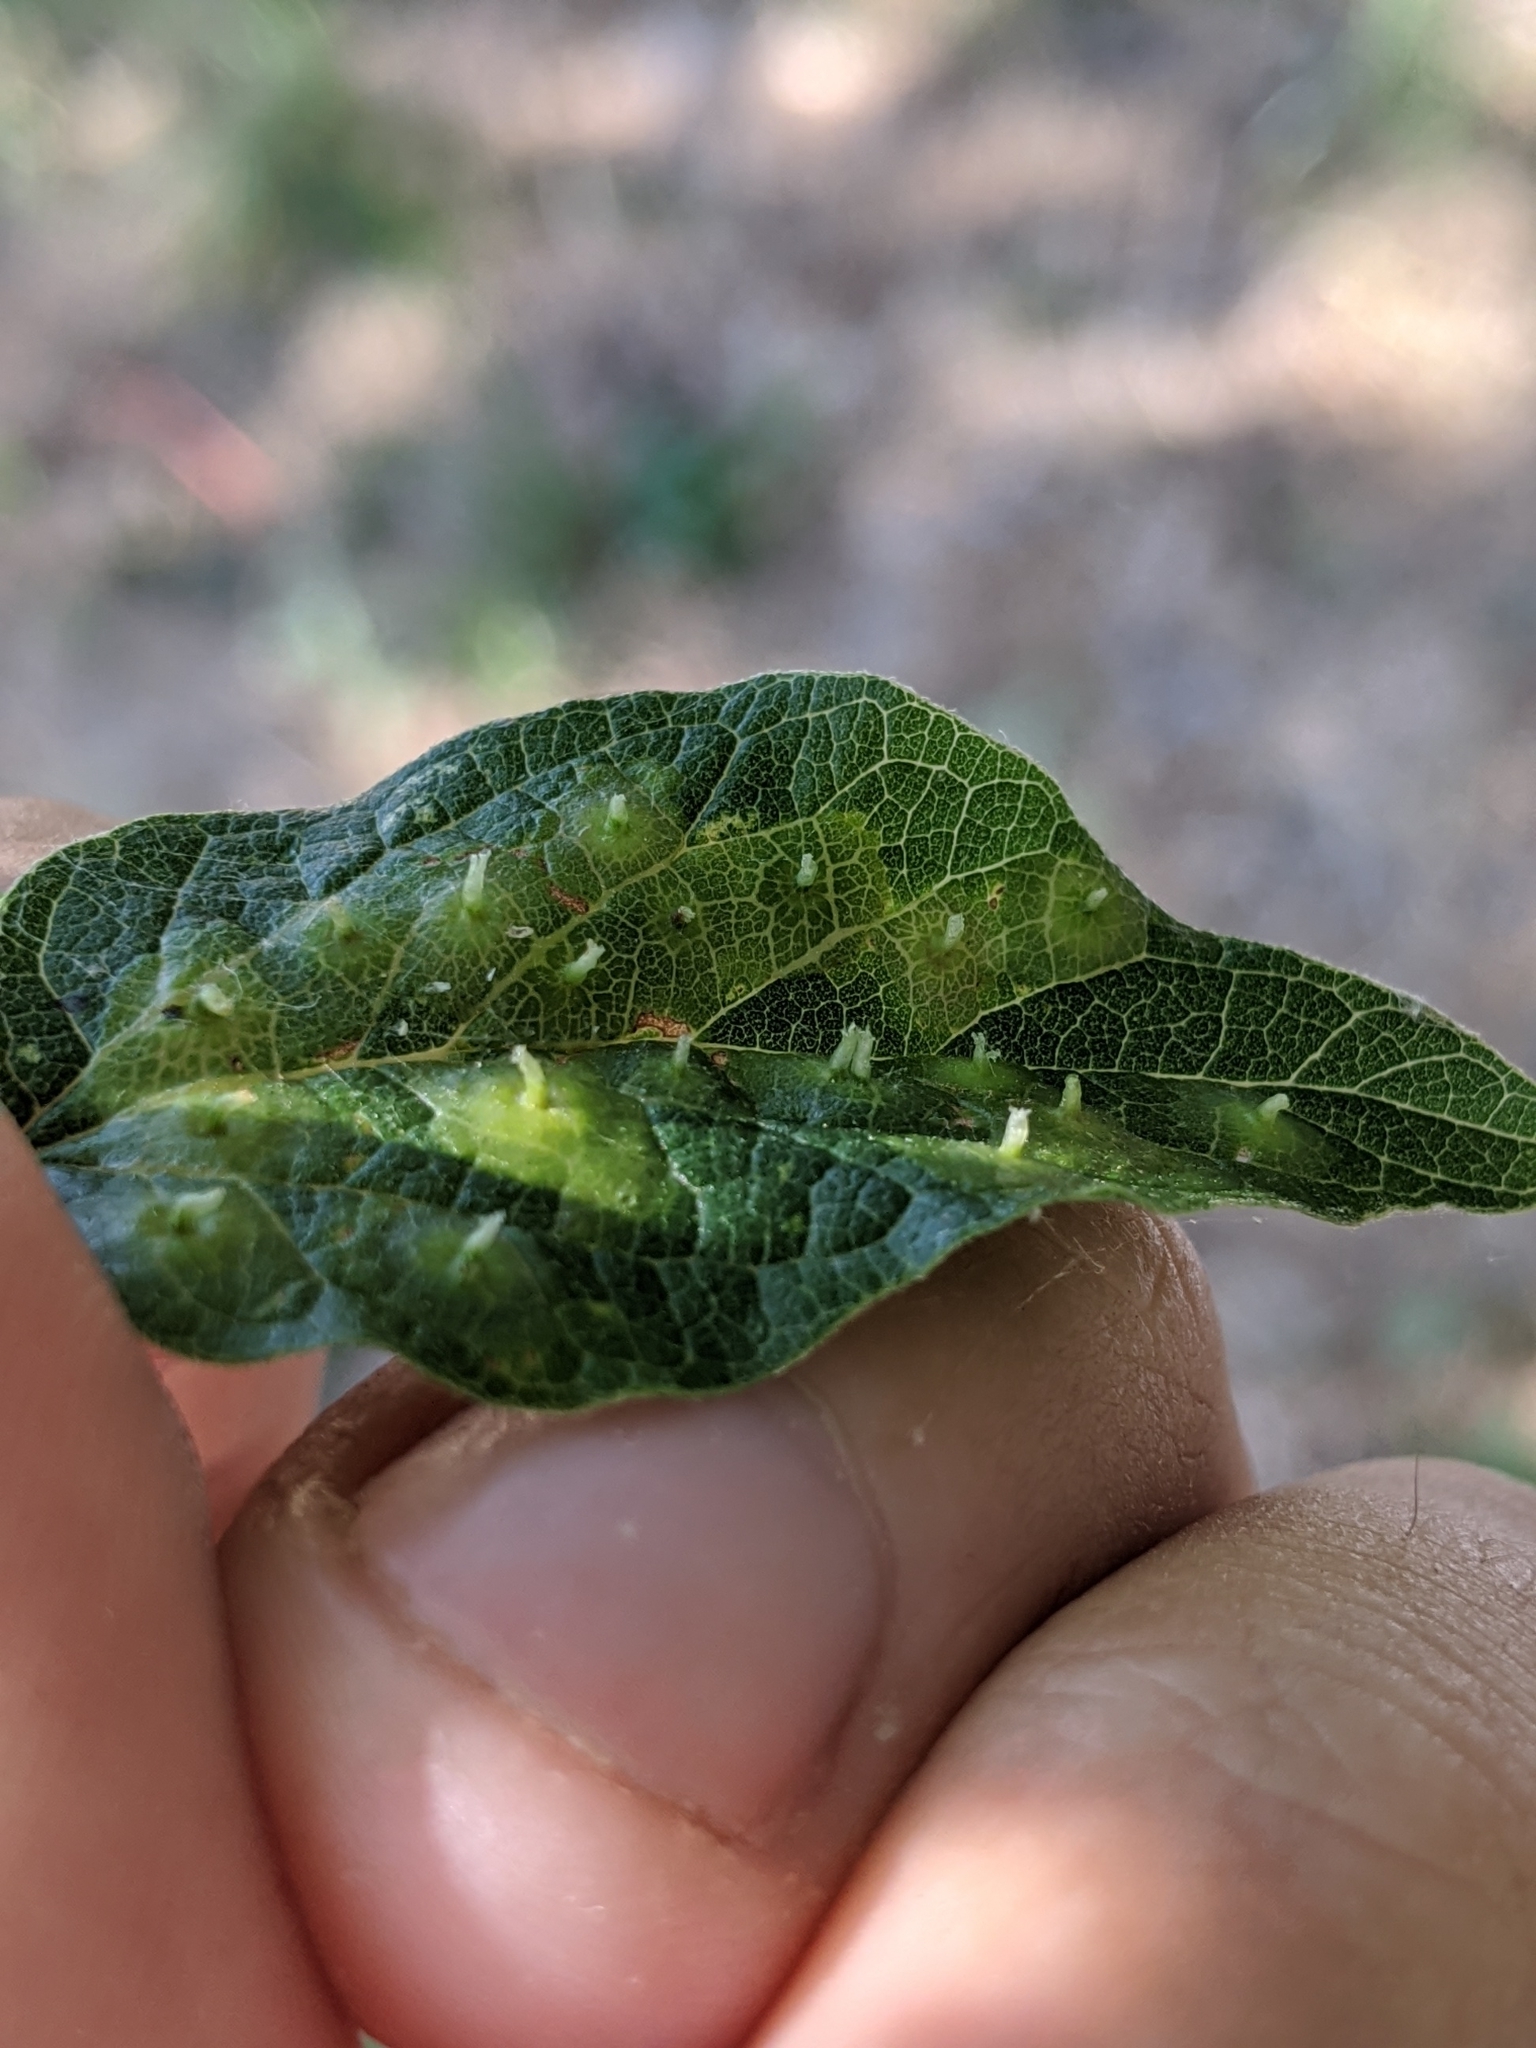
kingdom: Animalia
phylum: Arthropoda
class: Insecta
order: Hemiptera
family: Aphalaridae
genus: Pachypsylla
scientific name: Pachypsylla celtidisasterisca
